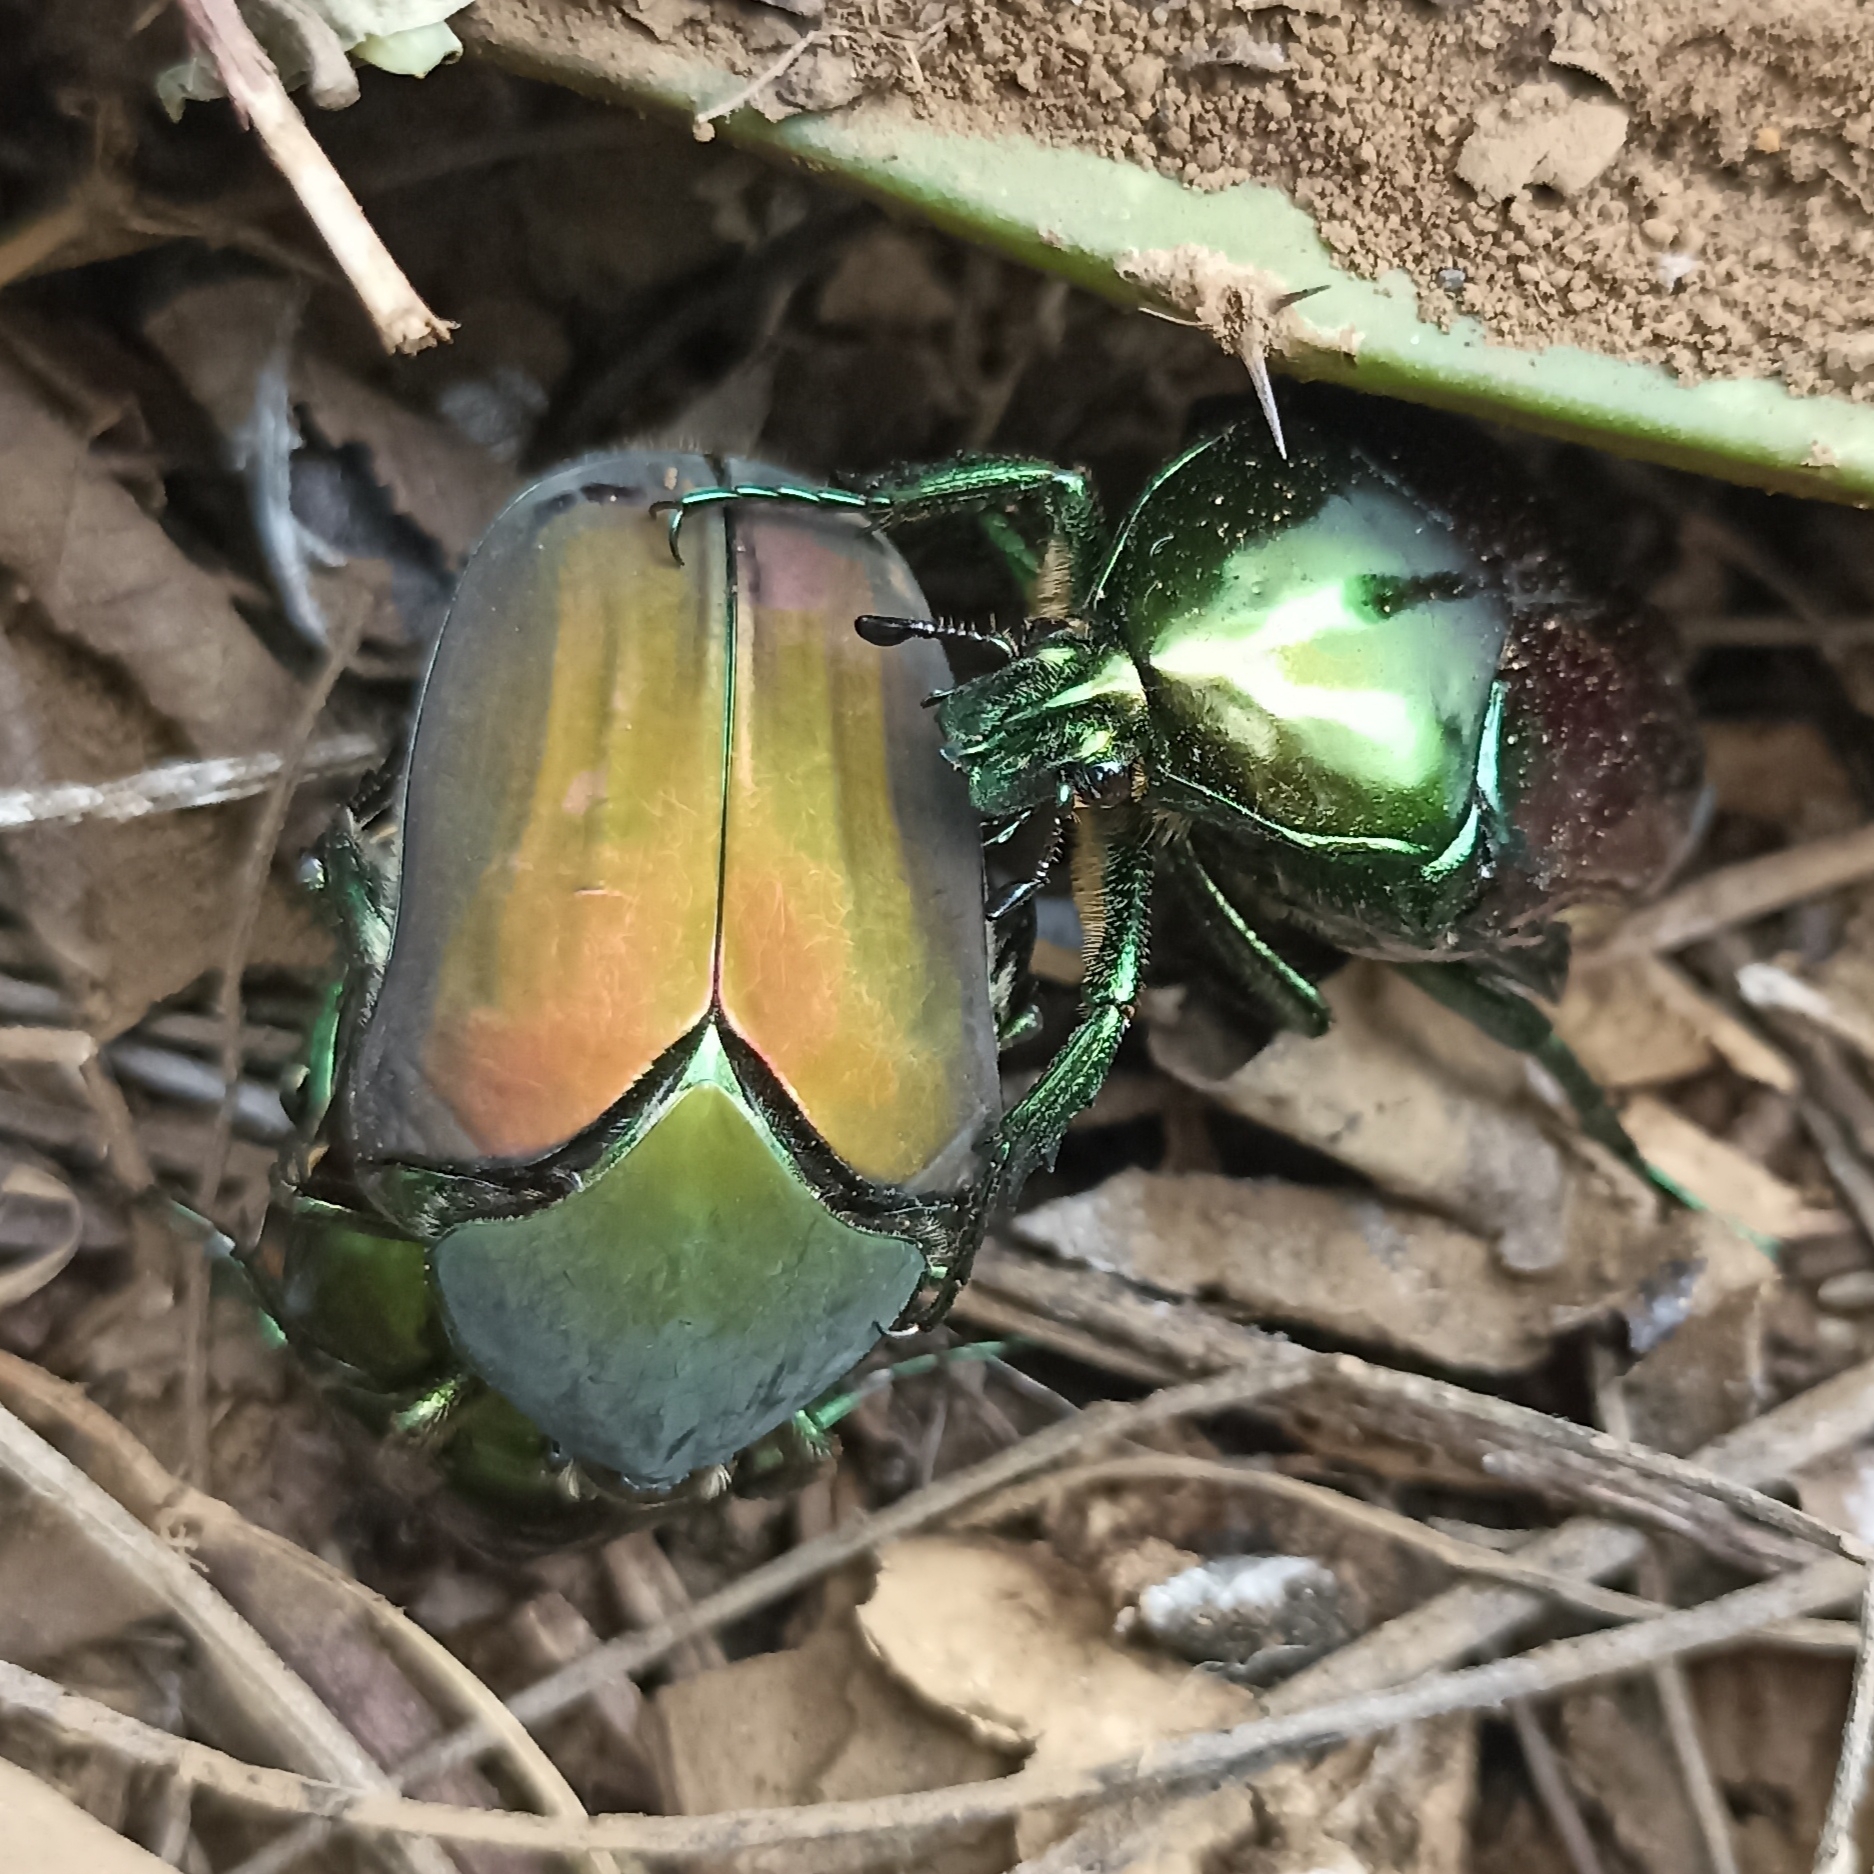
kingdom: Animalia
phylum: Arthropoda
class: Insecta
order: Coleoptera
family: Scarabaeidae
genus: Cotinis
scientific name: Cotinis mutabilis
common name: Figeater beetle
